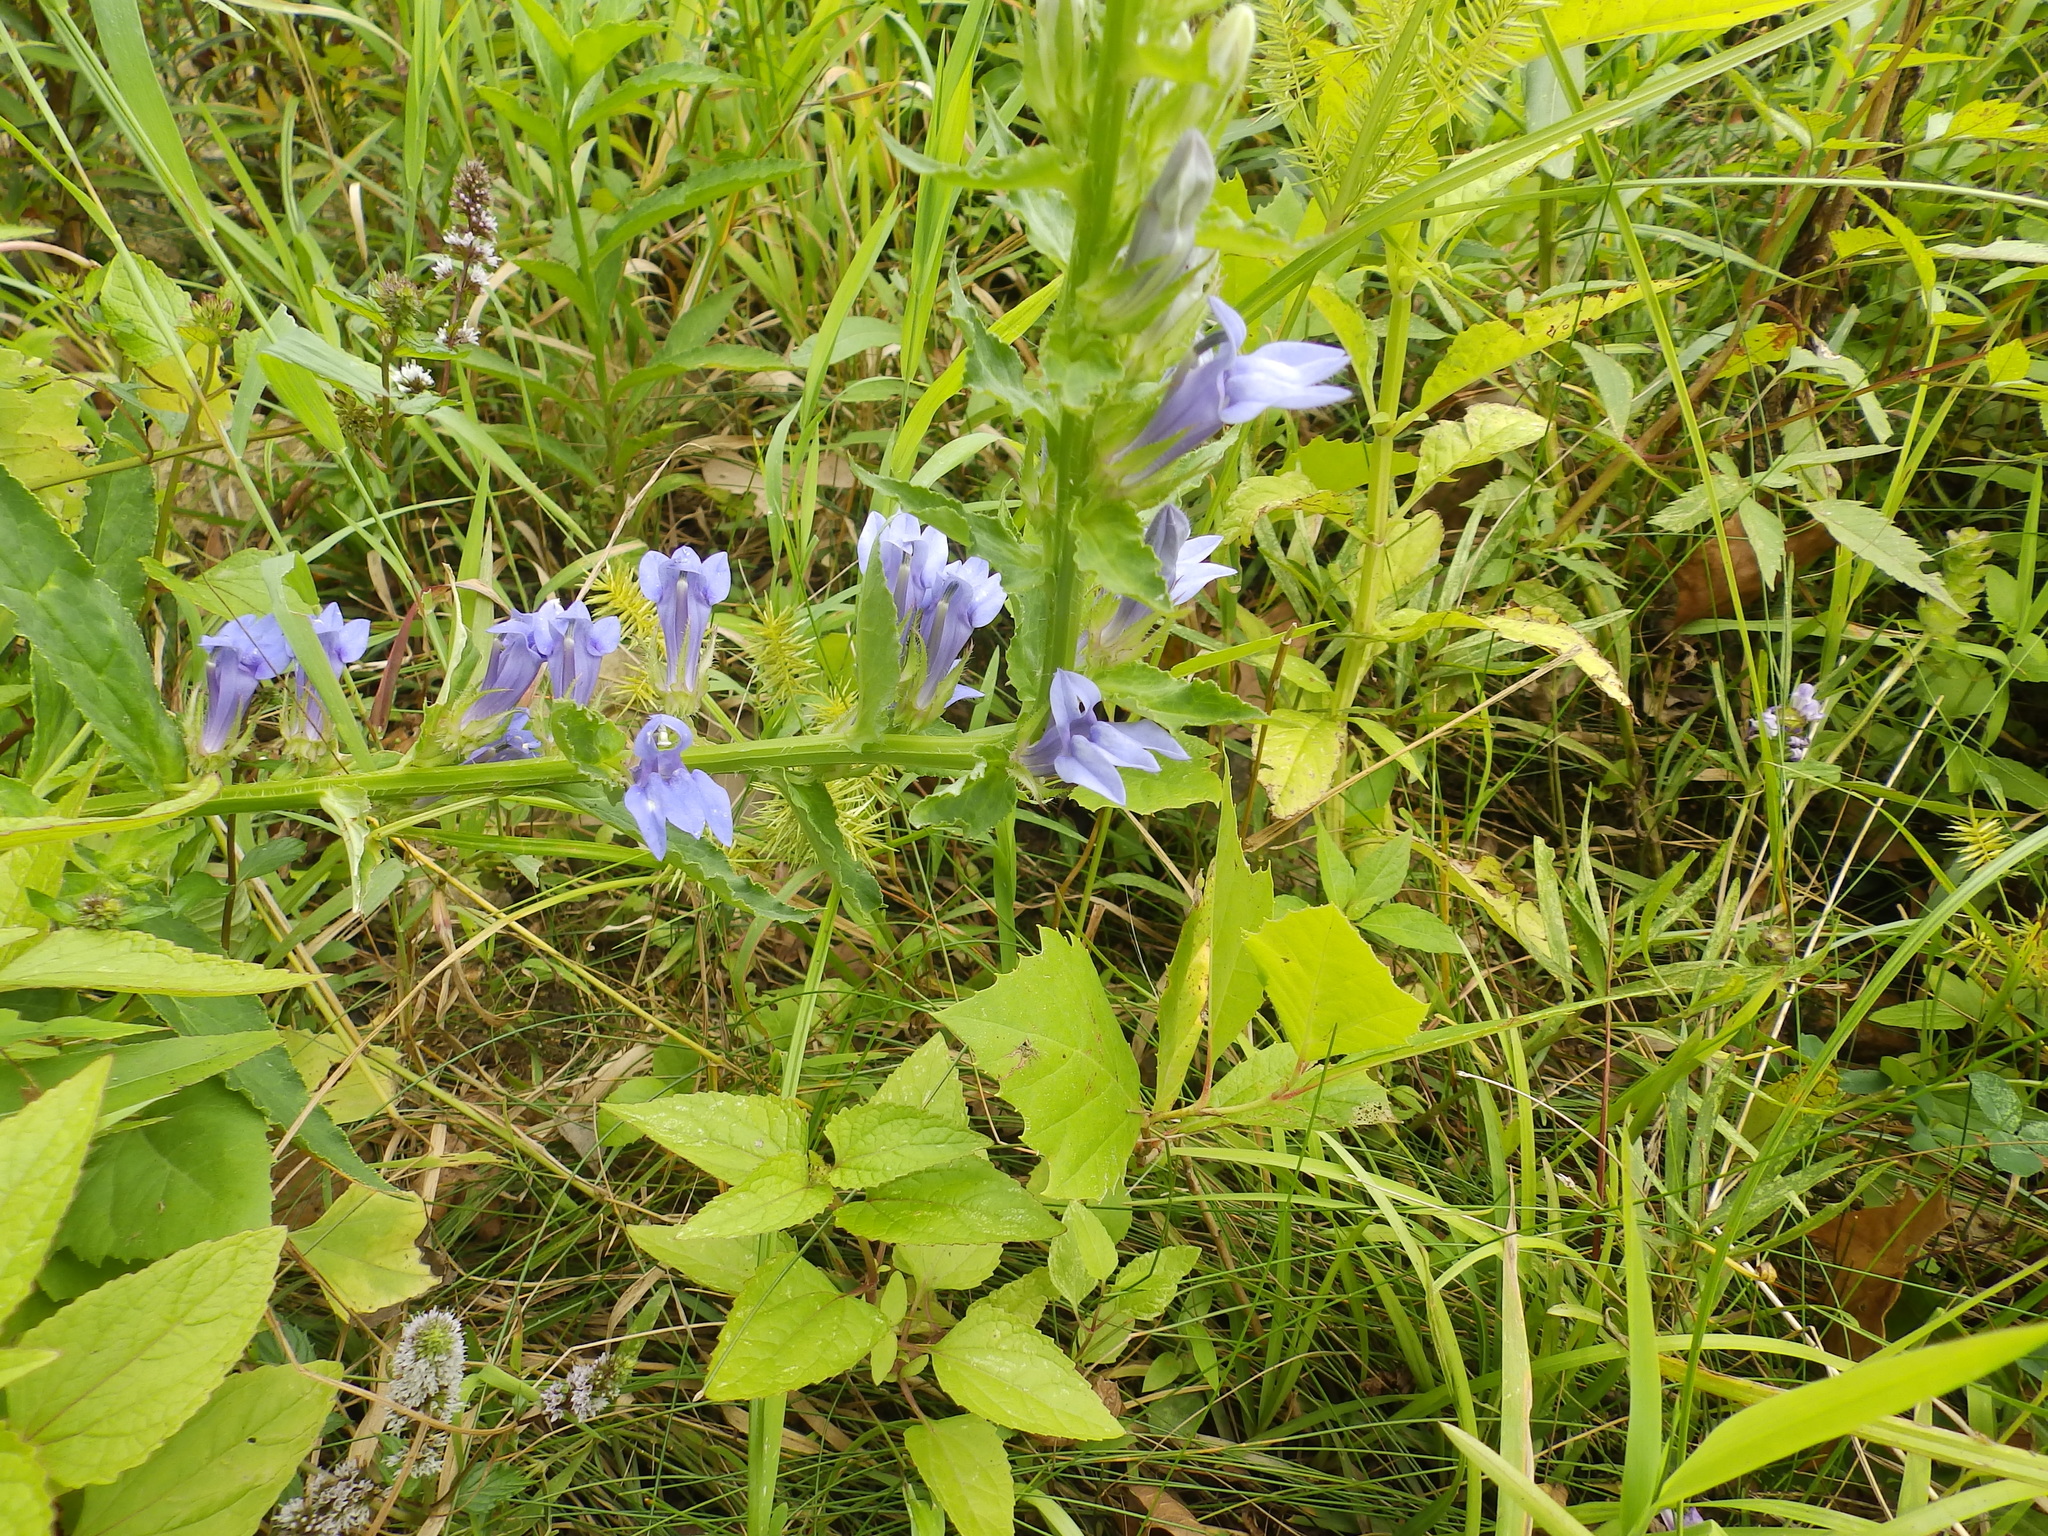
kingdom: Plantae
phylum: Tracheophyta
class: Magnoliopsida
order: Asterales
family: Campanulaceae
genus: Lobelia
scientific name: Lobelia siphilitica
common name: Great lobelia
